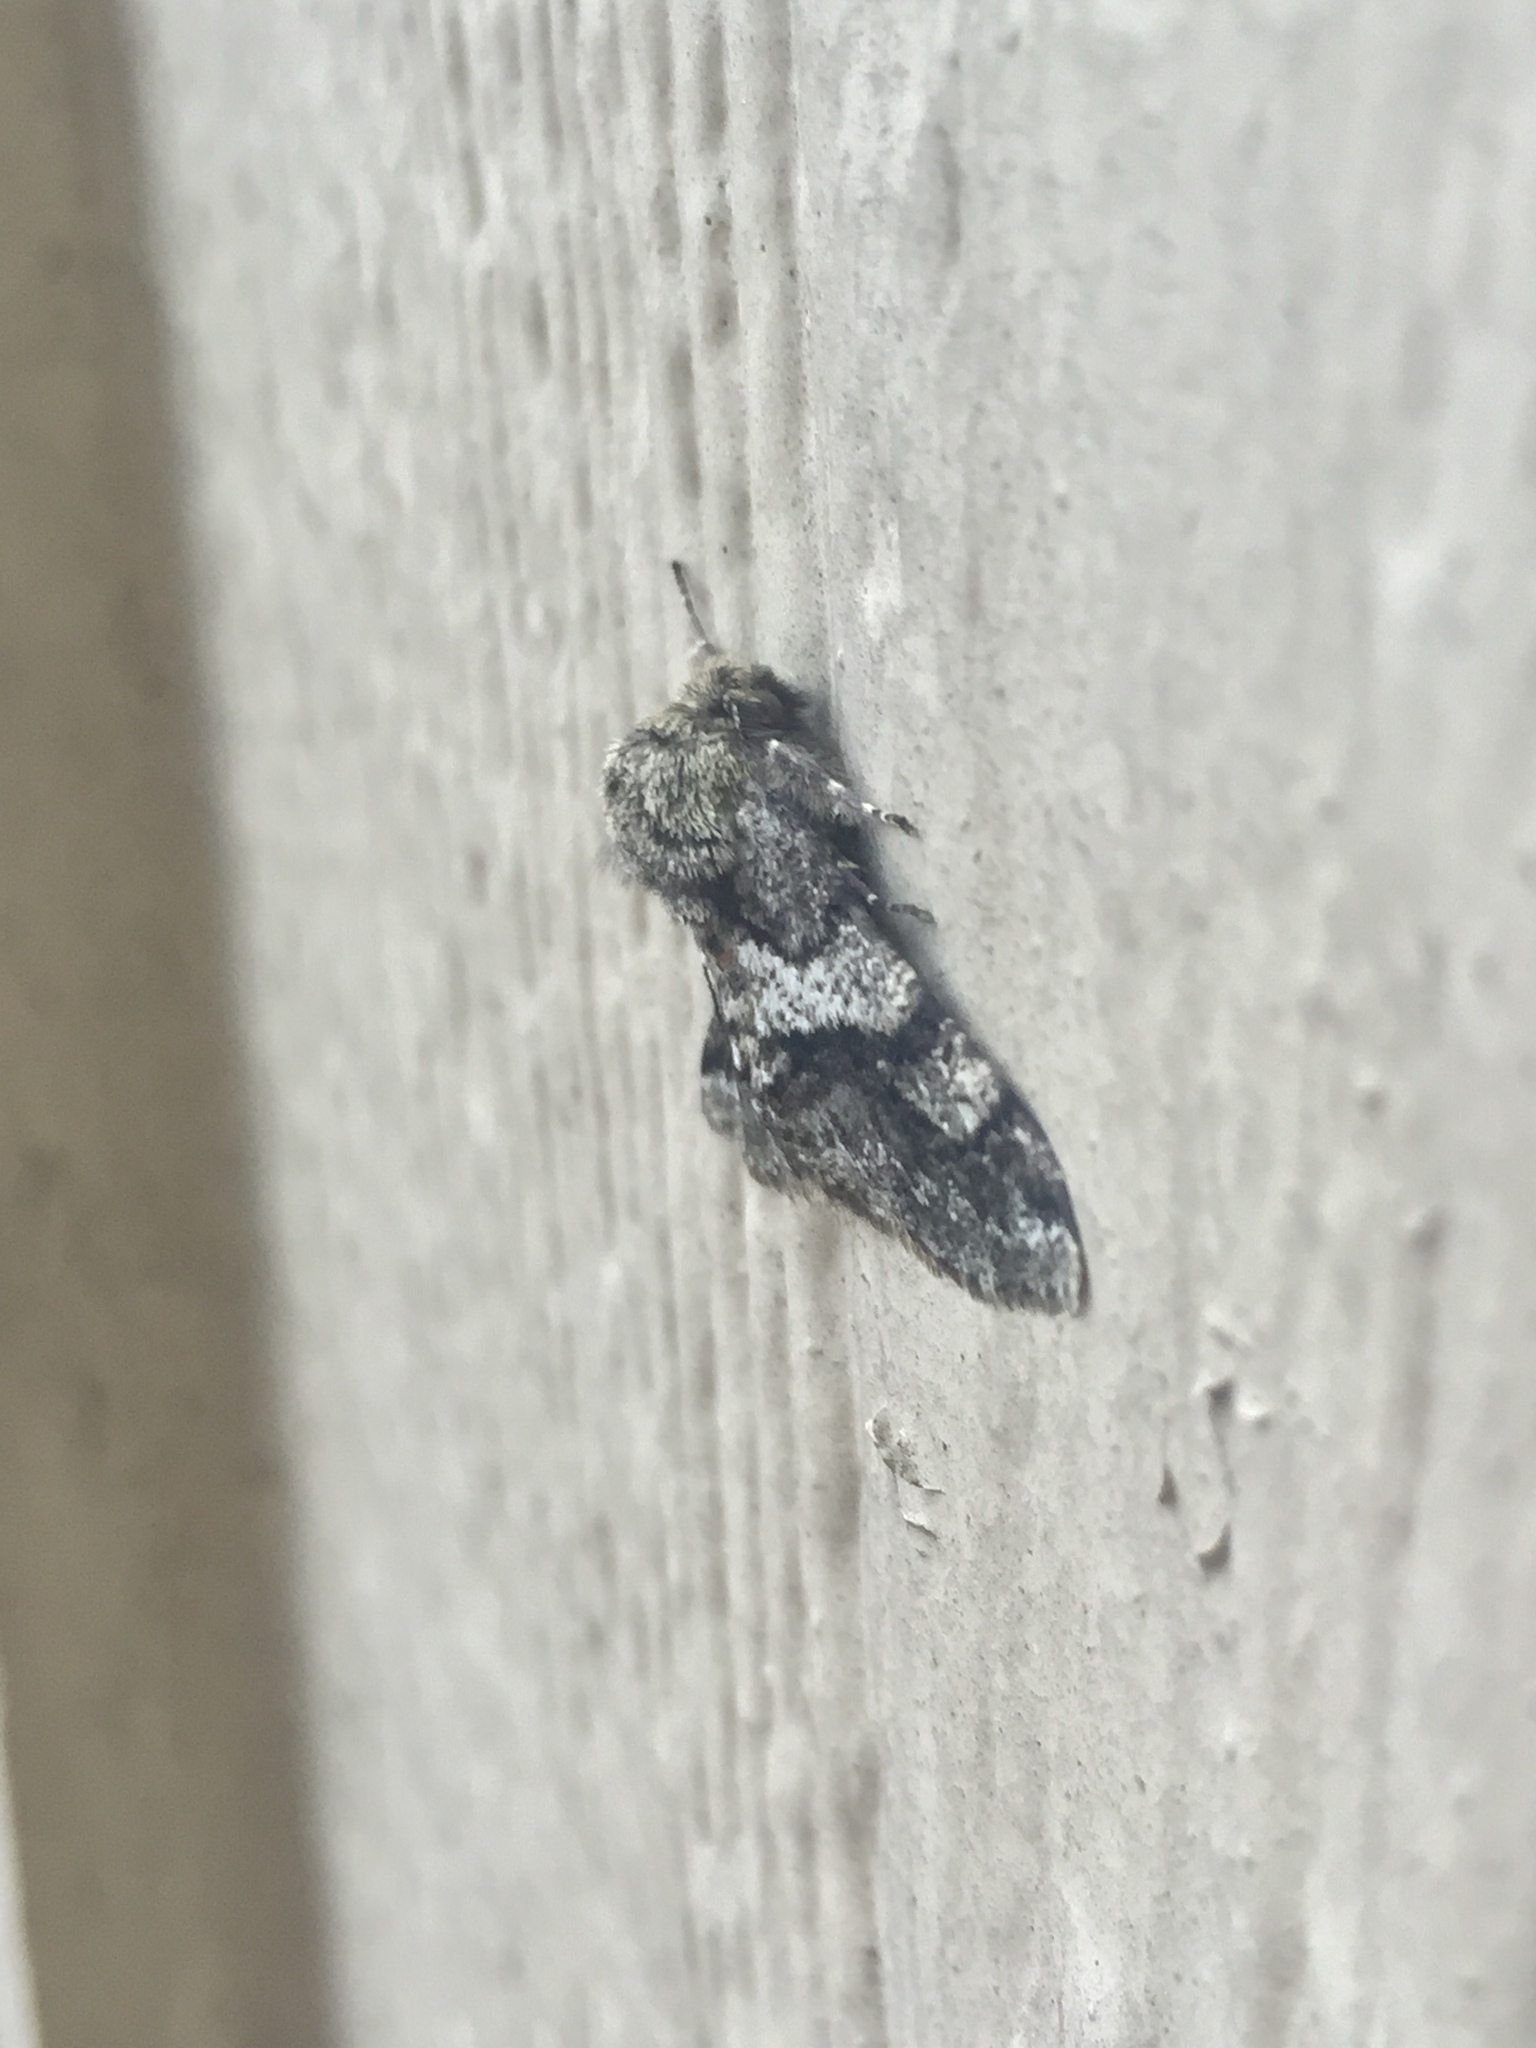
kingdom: Animalia
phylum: Arthropoda
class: Insecta
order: Lepidoptera
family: Geometridae
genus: Lycia
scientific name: Lycia ypsilon
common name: Wooly gray
